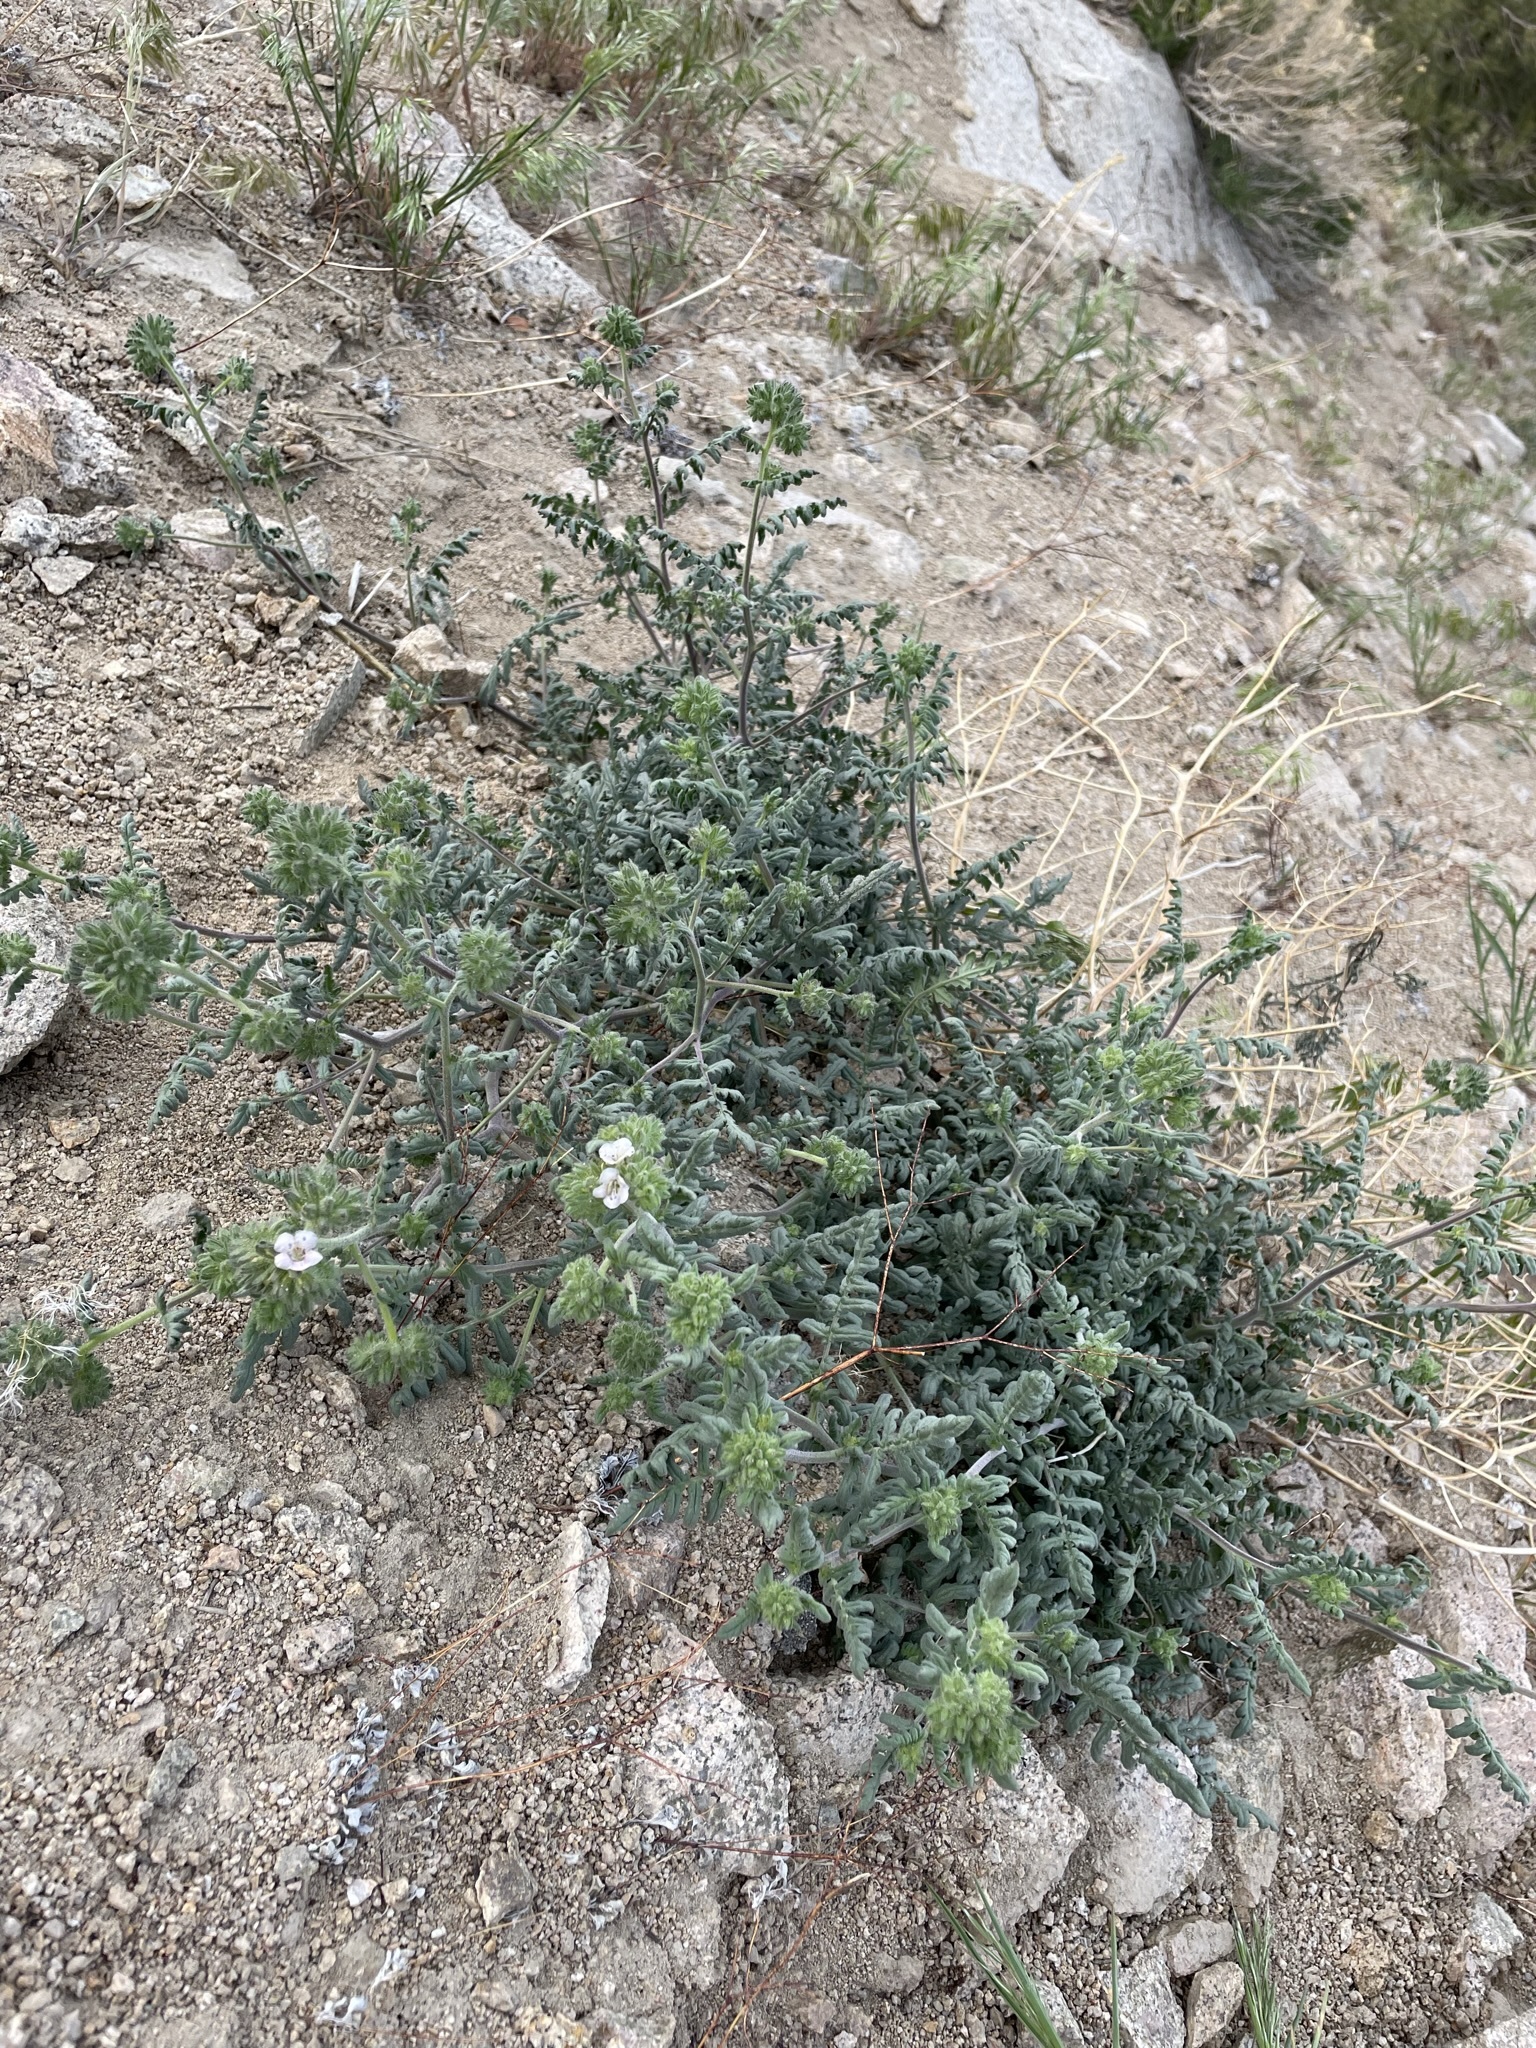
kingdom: Plantae
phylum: Tracheophyta
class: Magnoliopsida
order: Boraginales
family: Hydrophyllaceae
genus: Phacelia
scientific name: Phacelia ramosissima
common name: Branching phacelia
